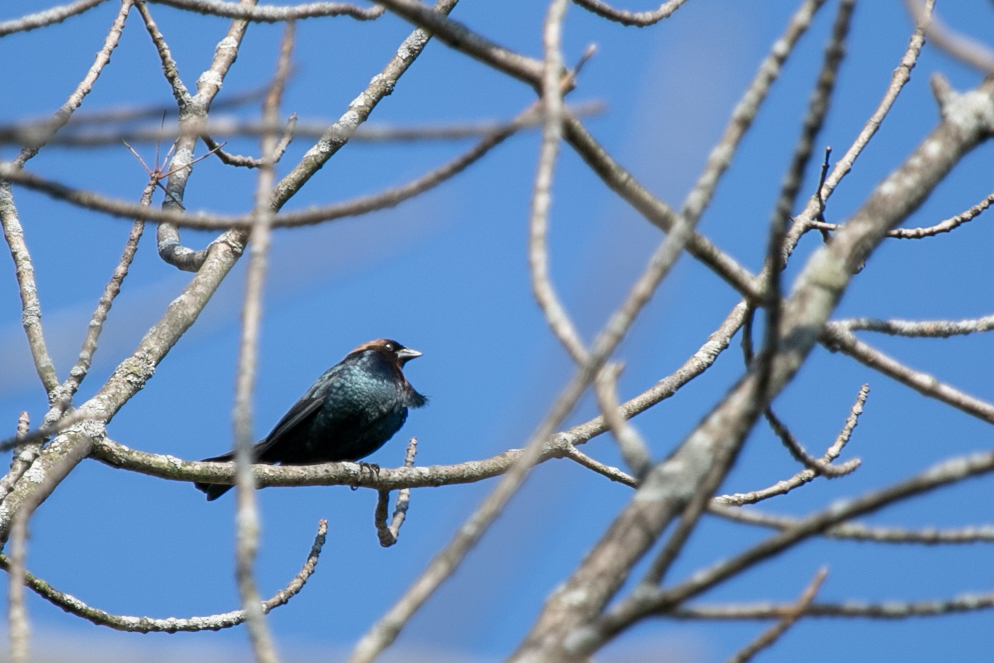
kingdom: Animalia
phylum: Chordata
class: Aves
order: Passeriformes
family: Icteridae
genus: Molothrus
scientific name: Molothrus ater
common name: Brown-headed cowbird
